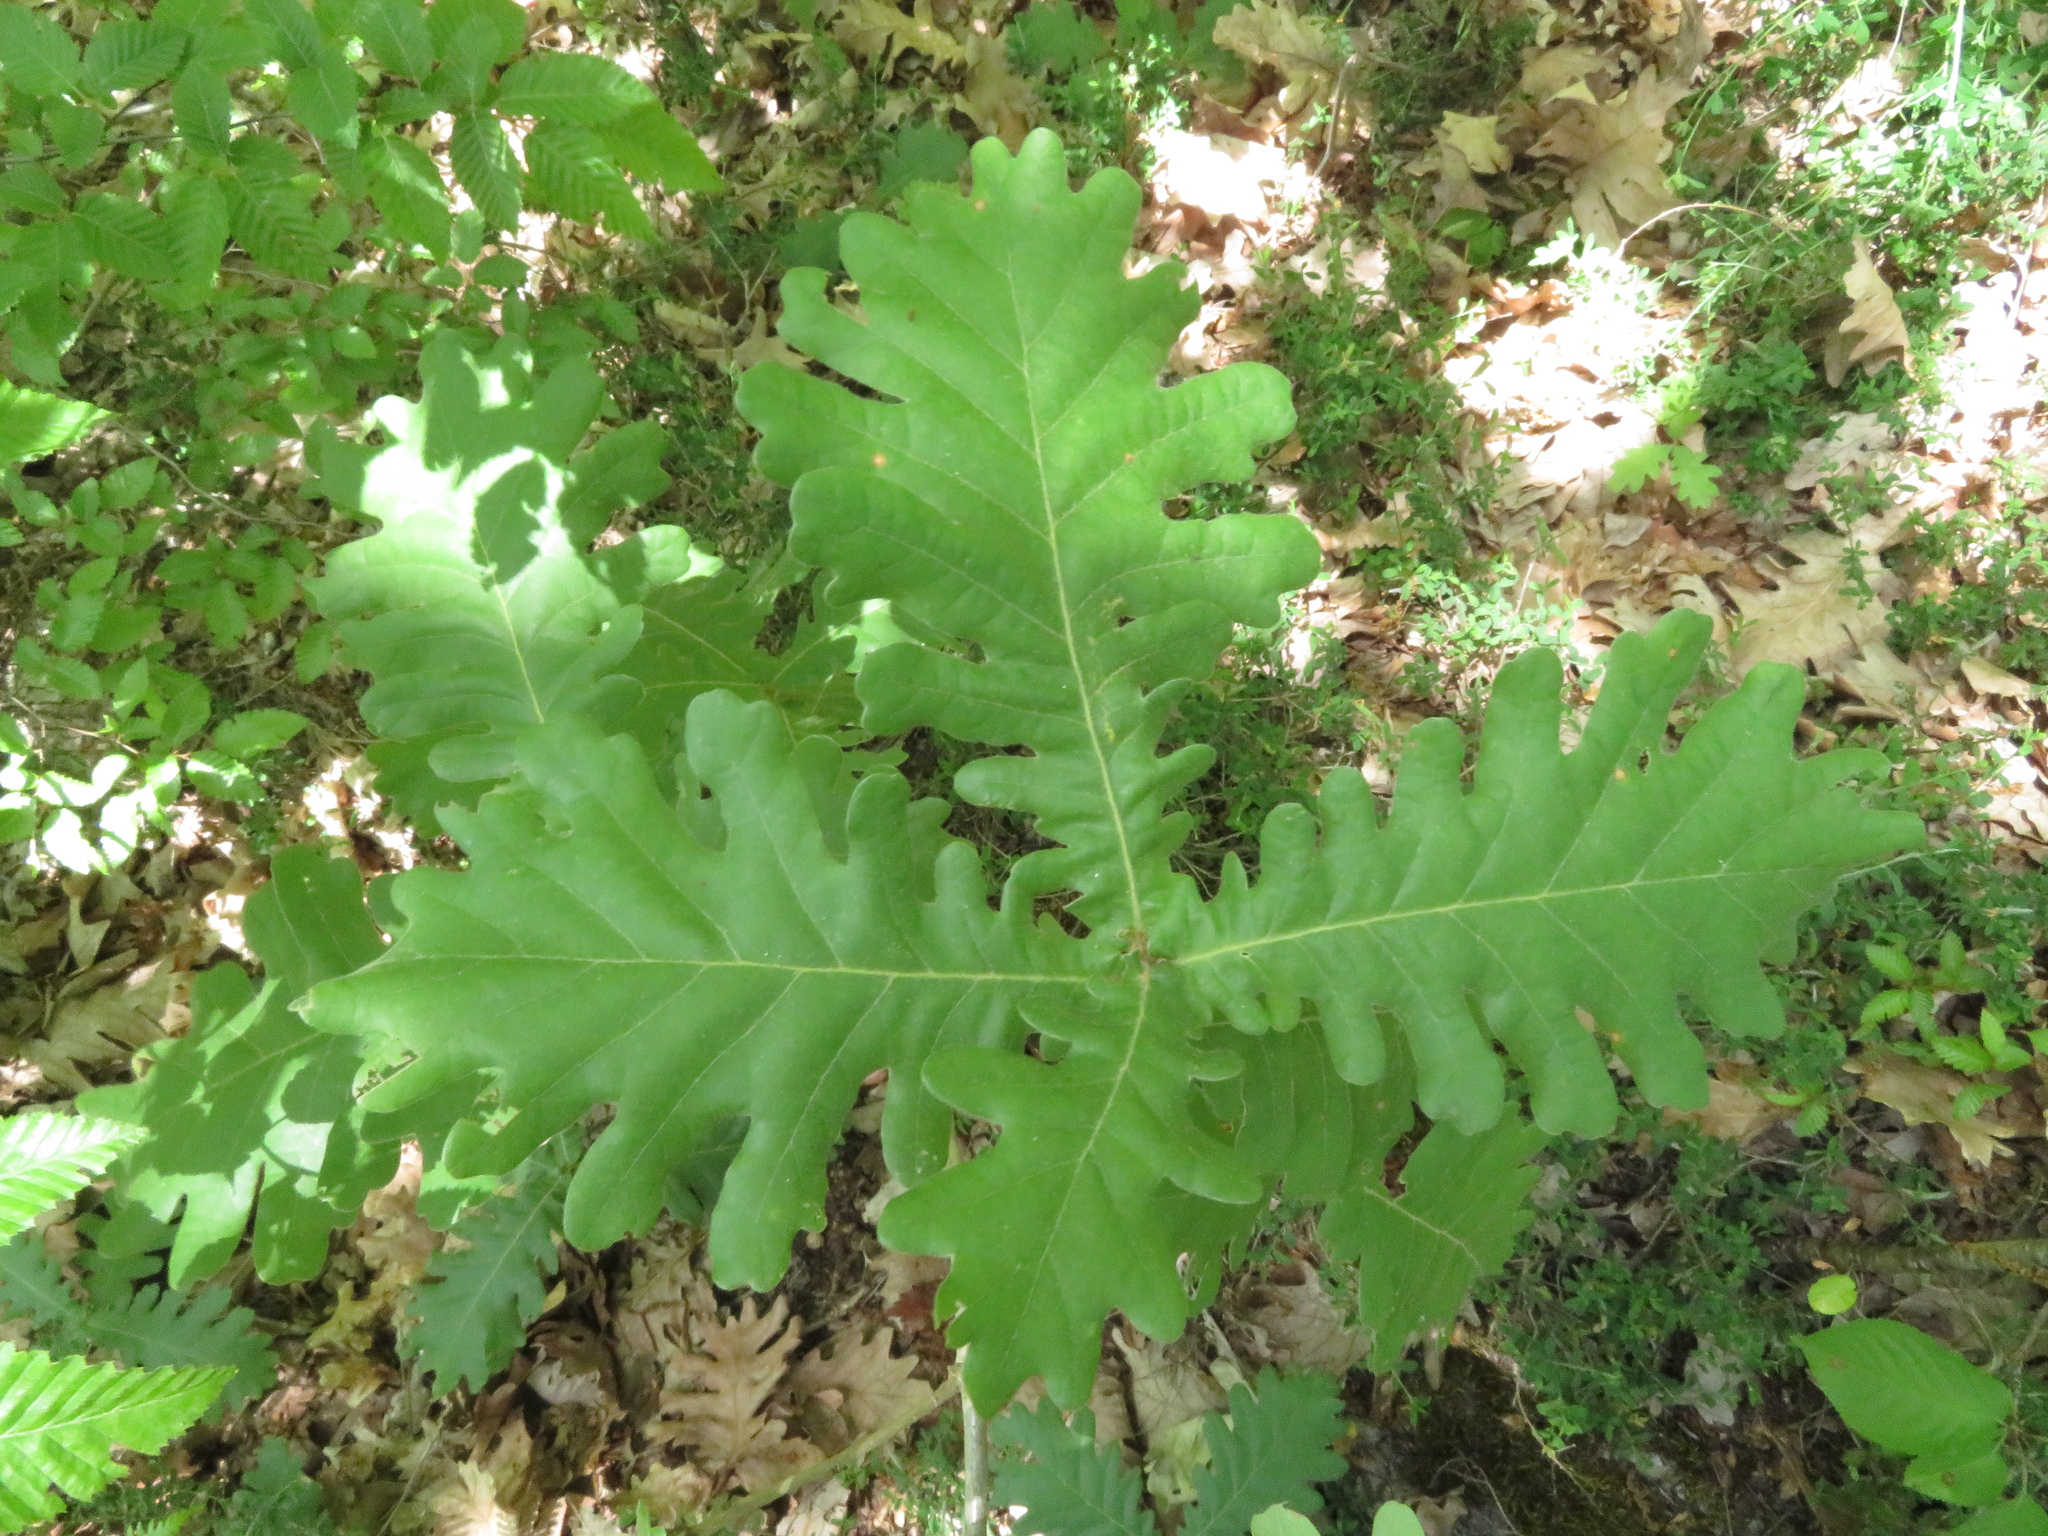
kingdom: Plantae
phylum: Tracheophyta
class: Magnoliopsida
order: Fagales
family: Fagaceae
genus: Quercus
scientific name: Quercus conferta
